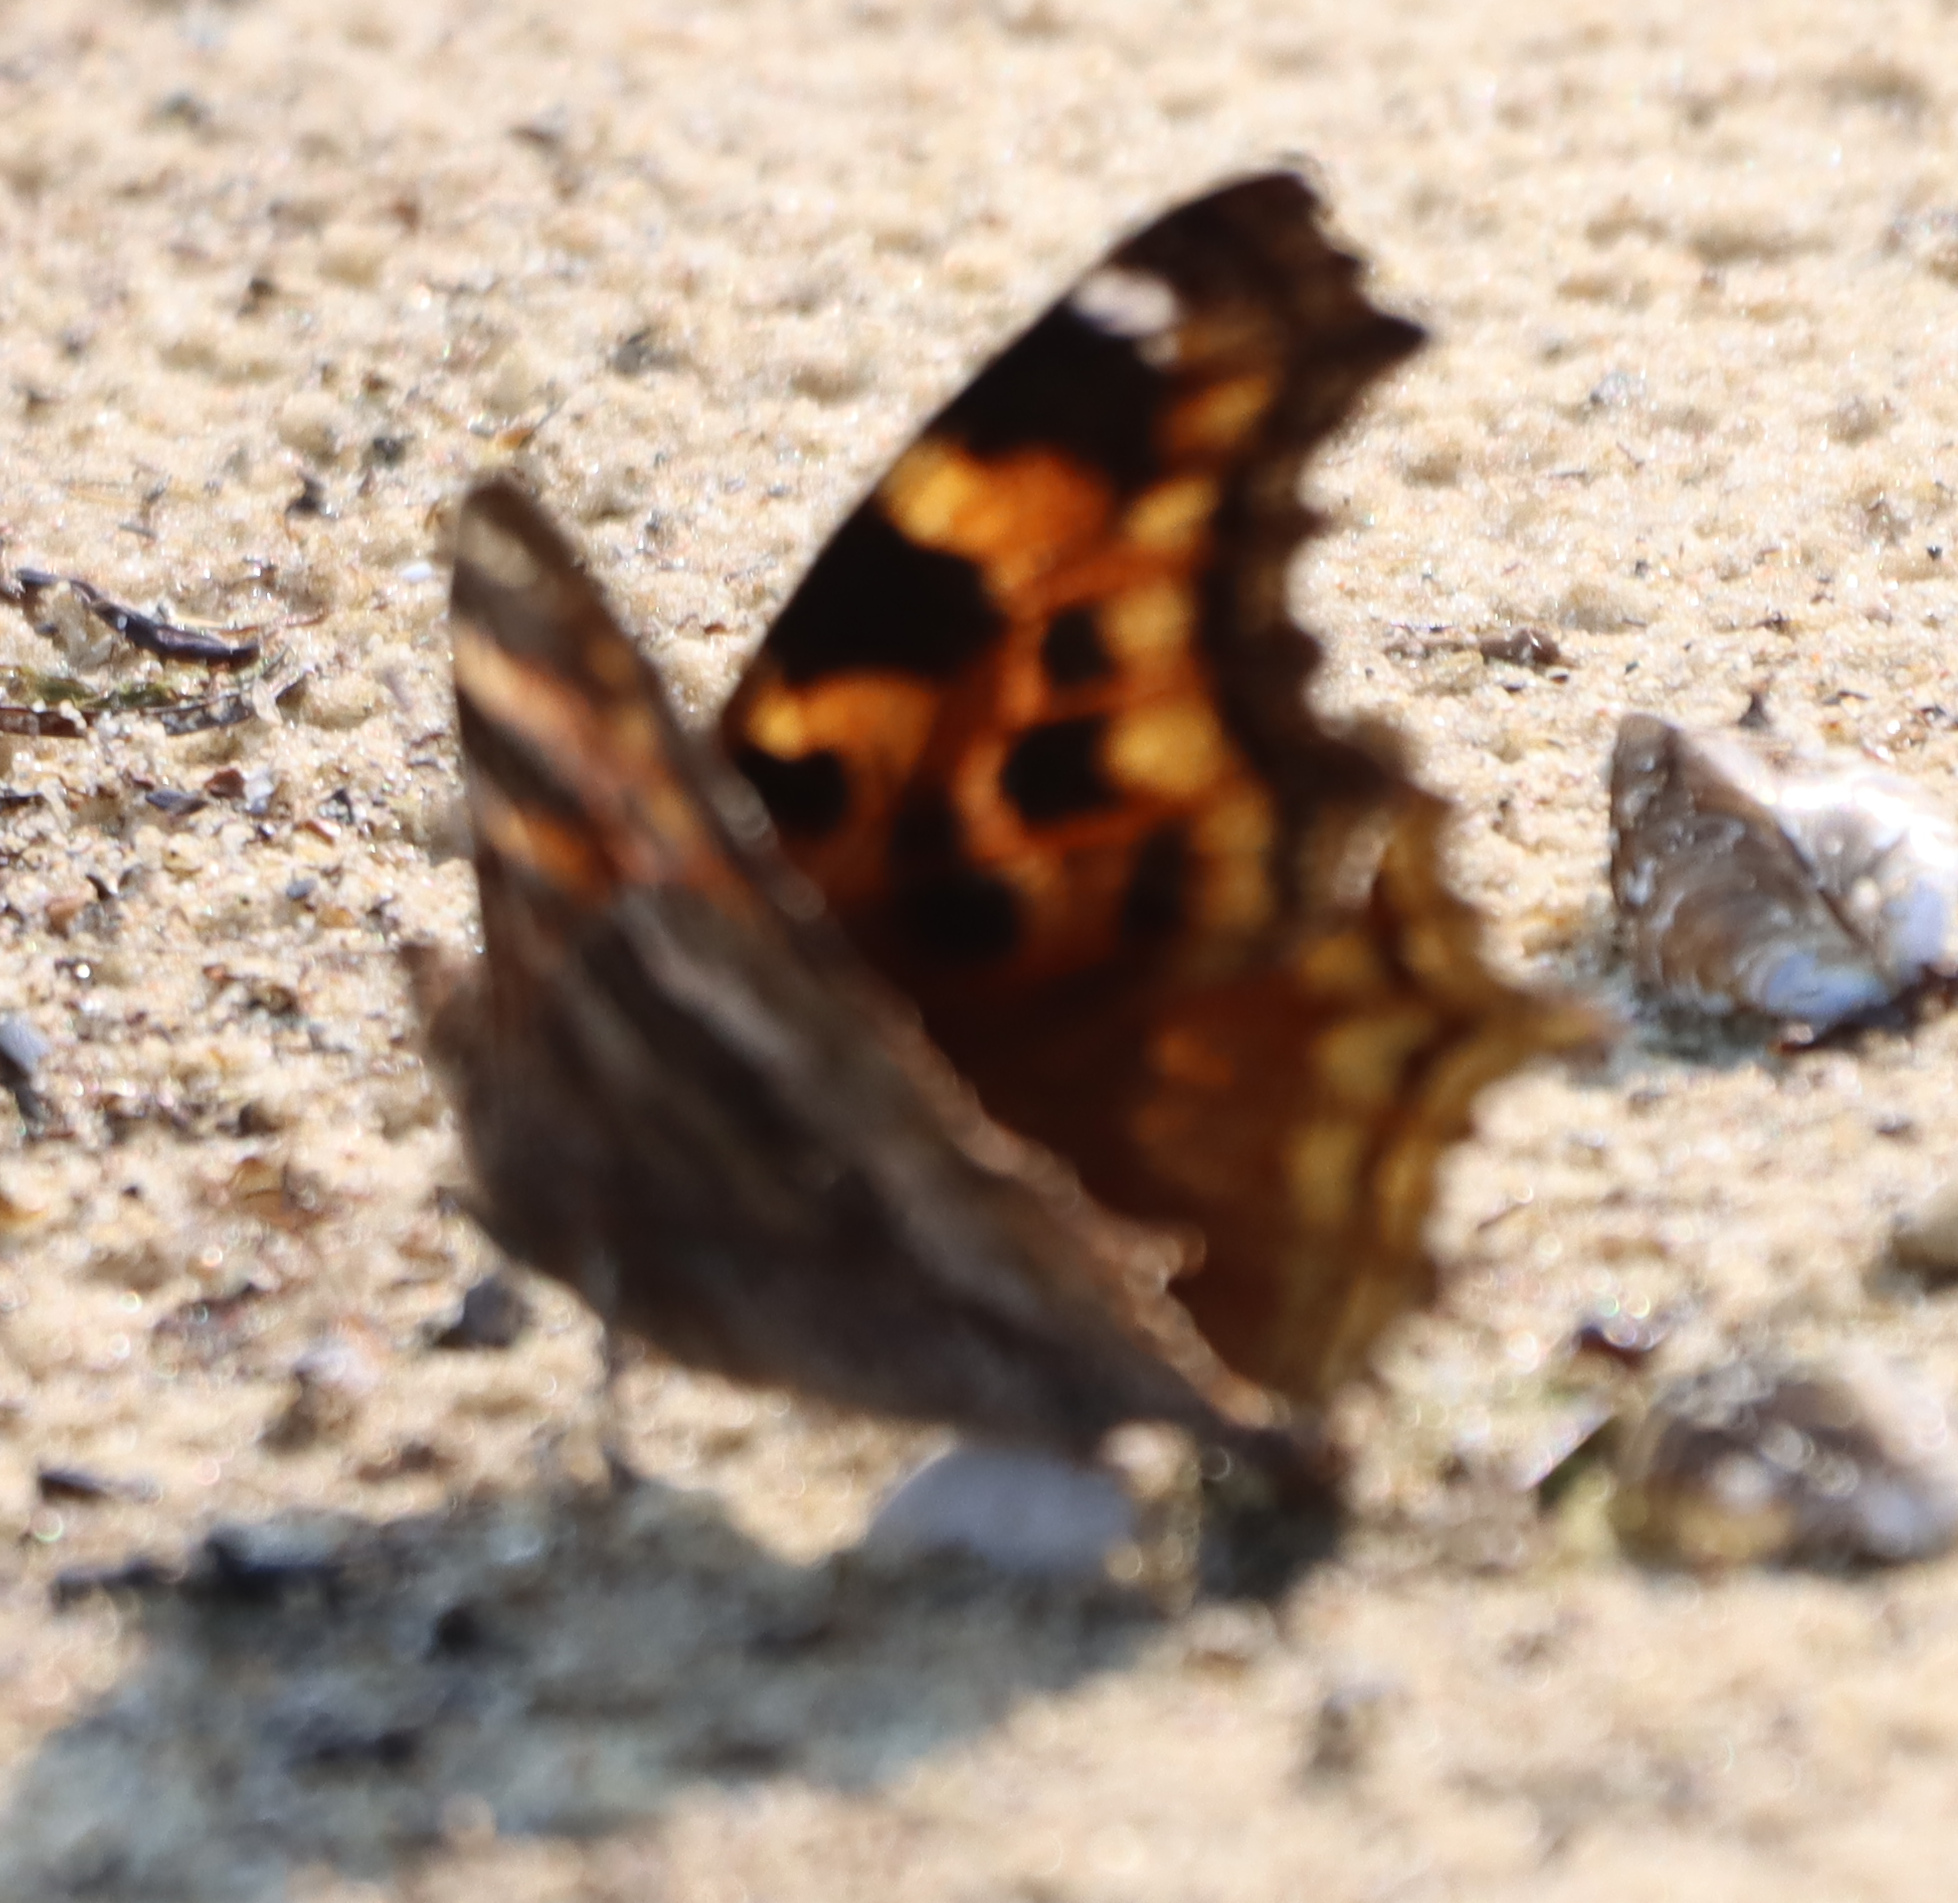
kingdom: Animalia
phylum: Arthropoda
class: Insecta
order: Lepidoptera
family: Nymphalidae
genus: Polygonia
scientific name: Polygonia vaualbum
